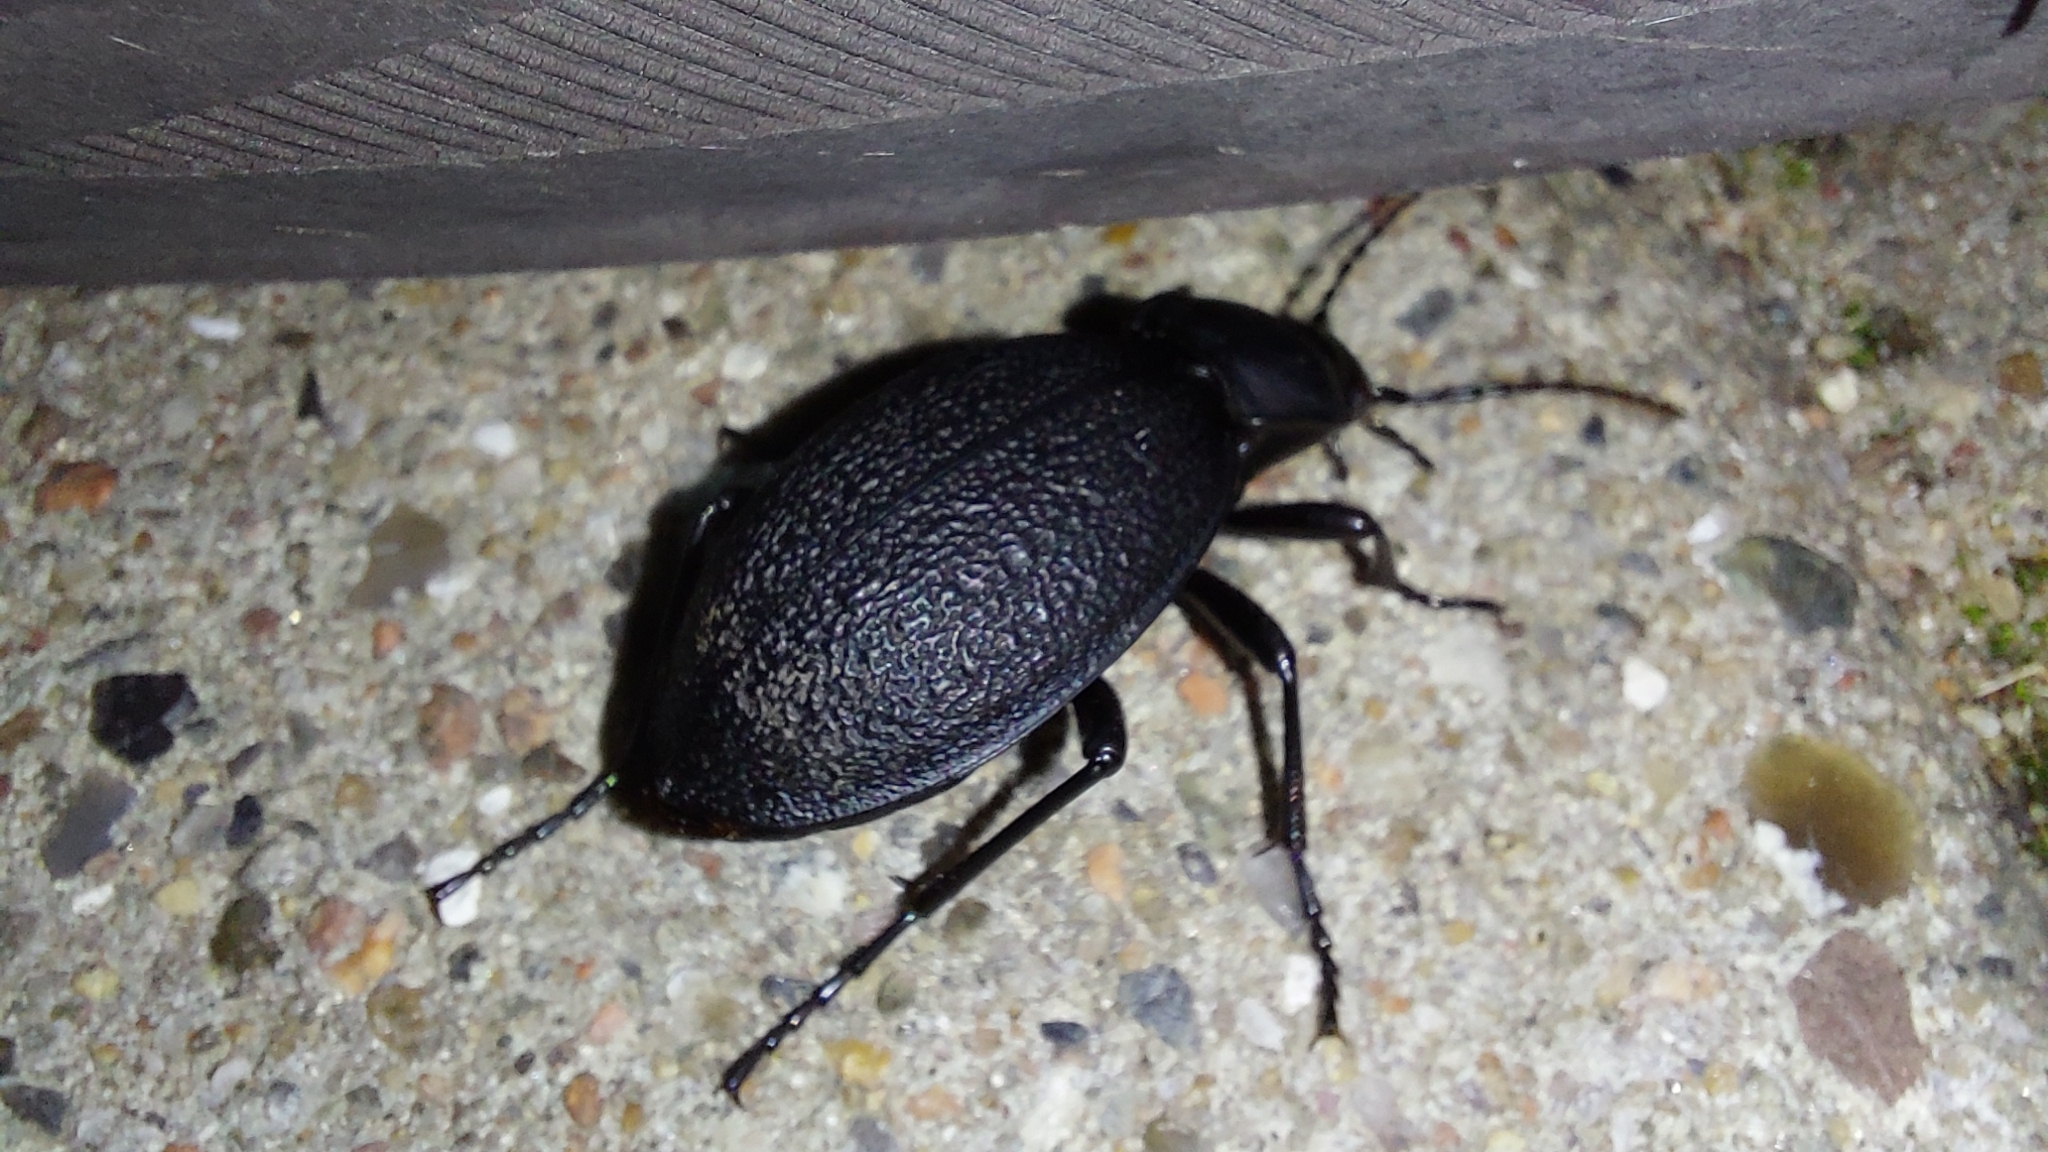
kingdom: Animalia
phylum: Arthropoda
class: Insecta
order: Coleoptera
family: Carabidae
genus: Carabus
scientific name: Carabus coriaceus
